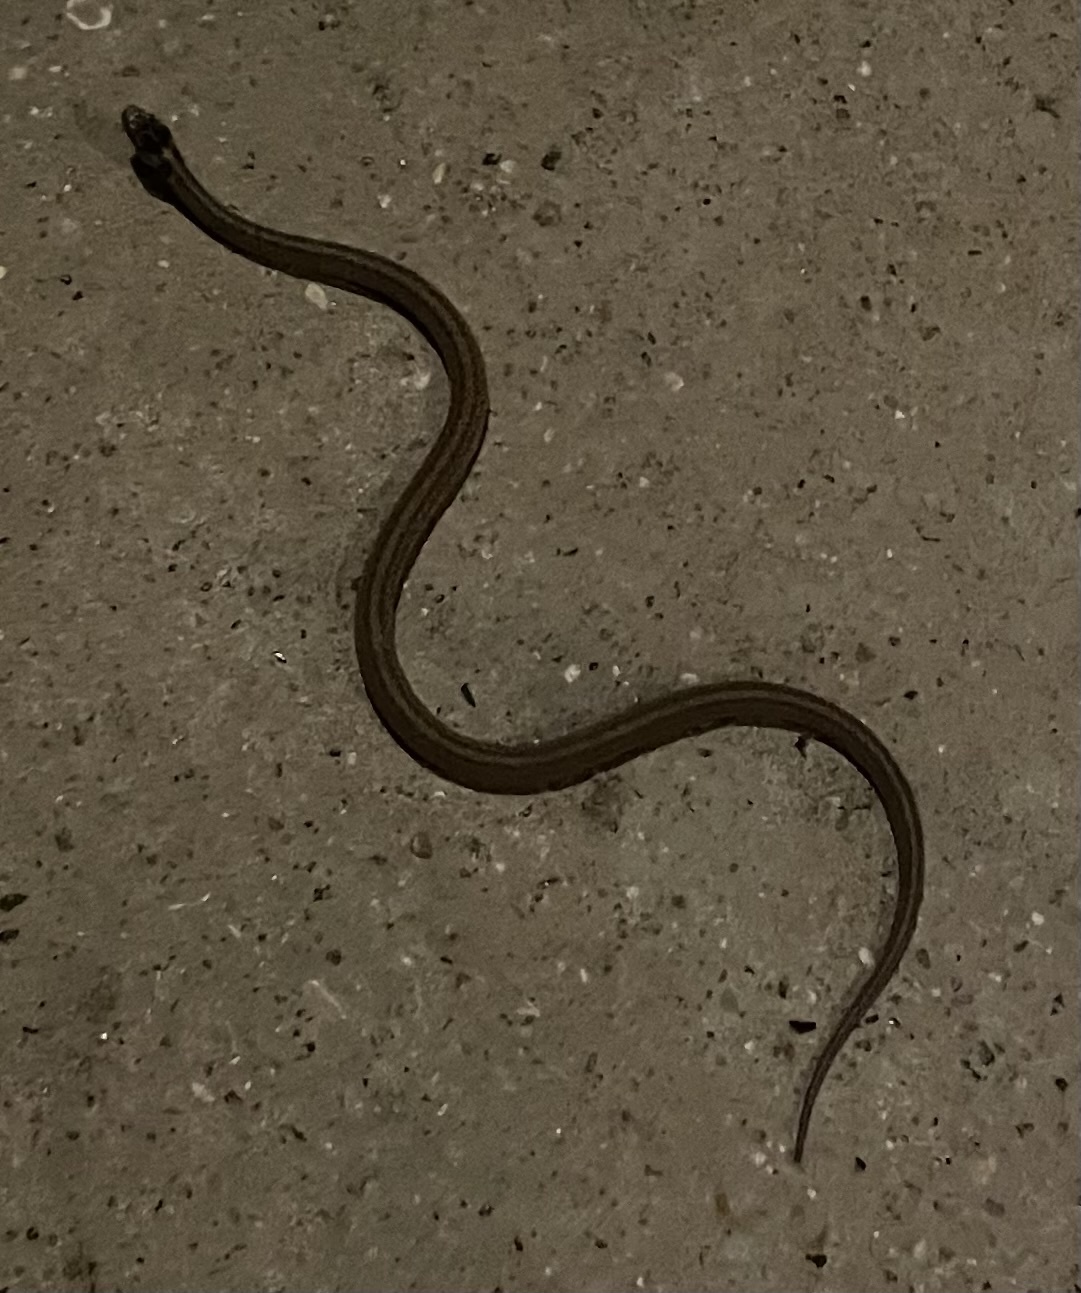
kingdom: Animalia
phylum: Chordata
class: Squamata
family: Colubridae
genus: Storeria
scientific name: Storeria dekayi
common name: (dekay’s) brown snake
